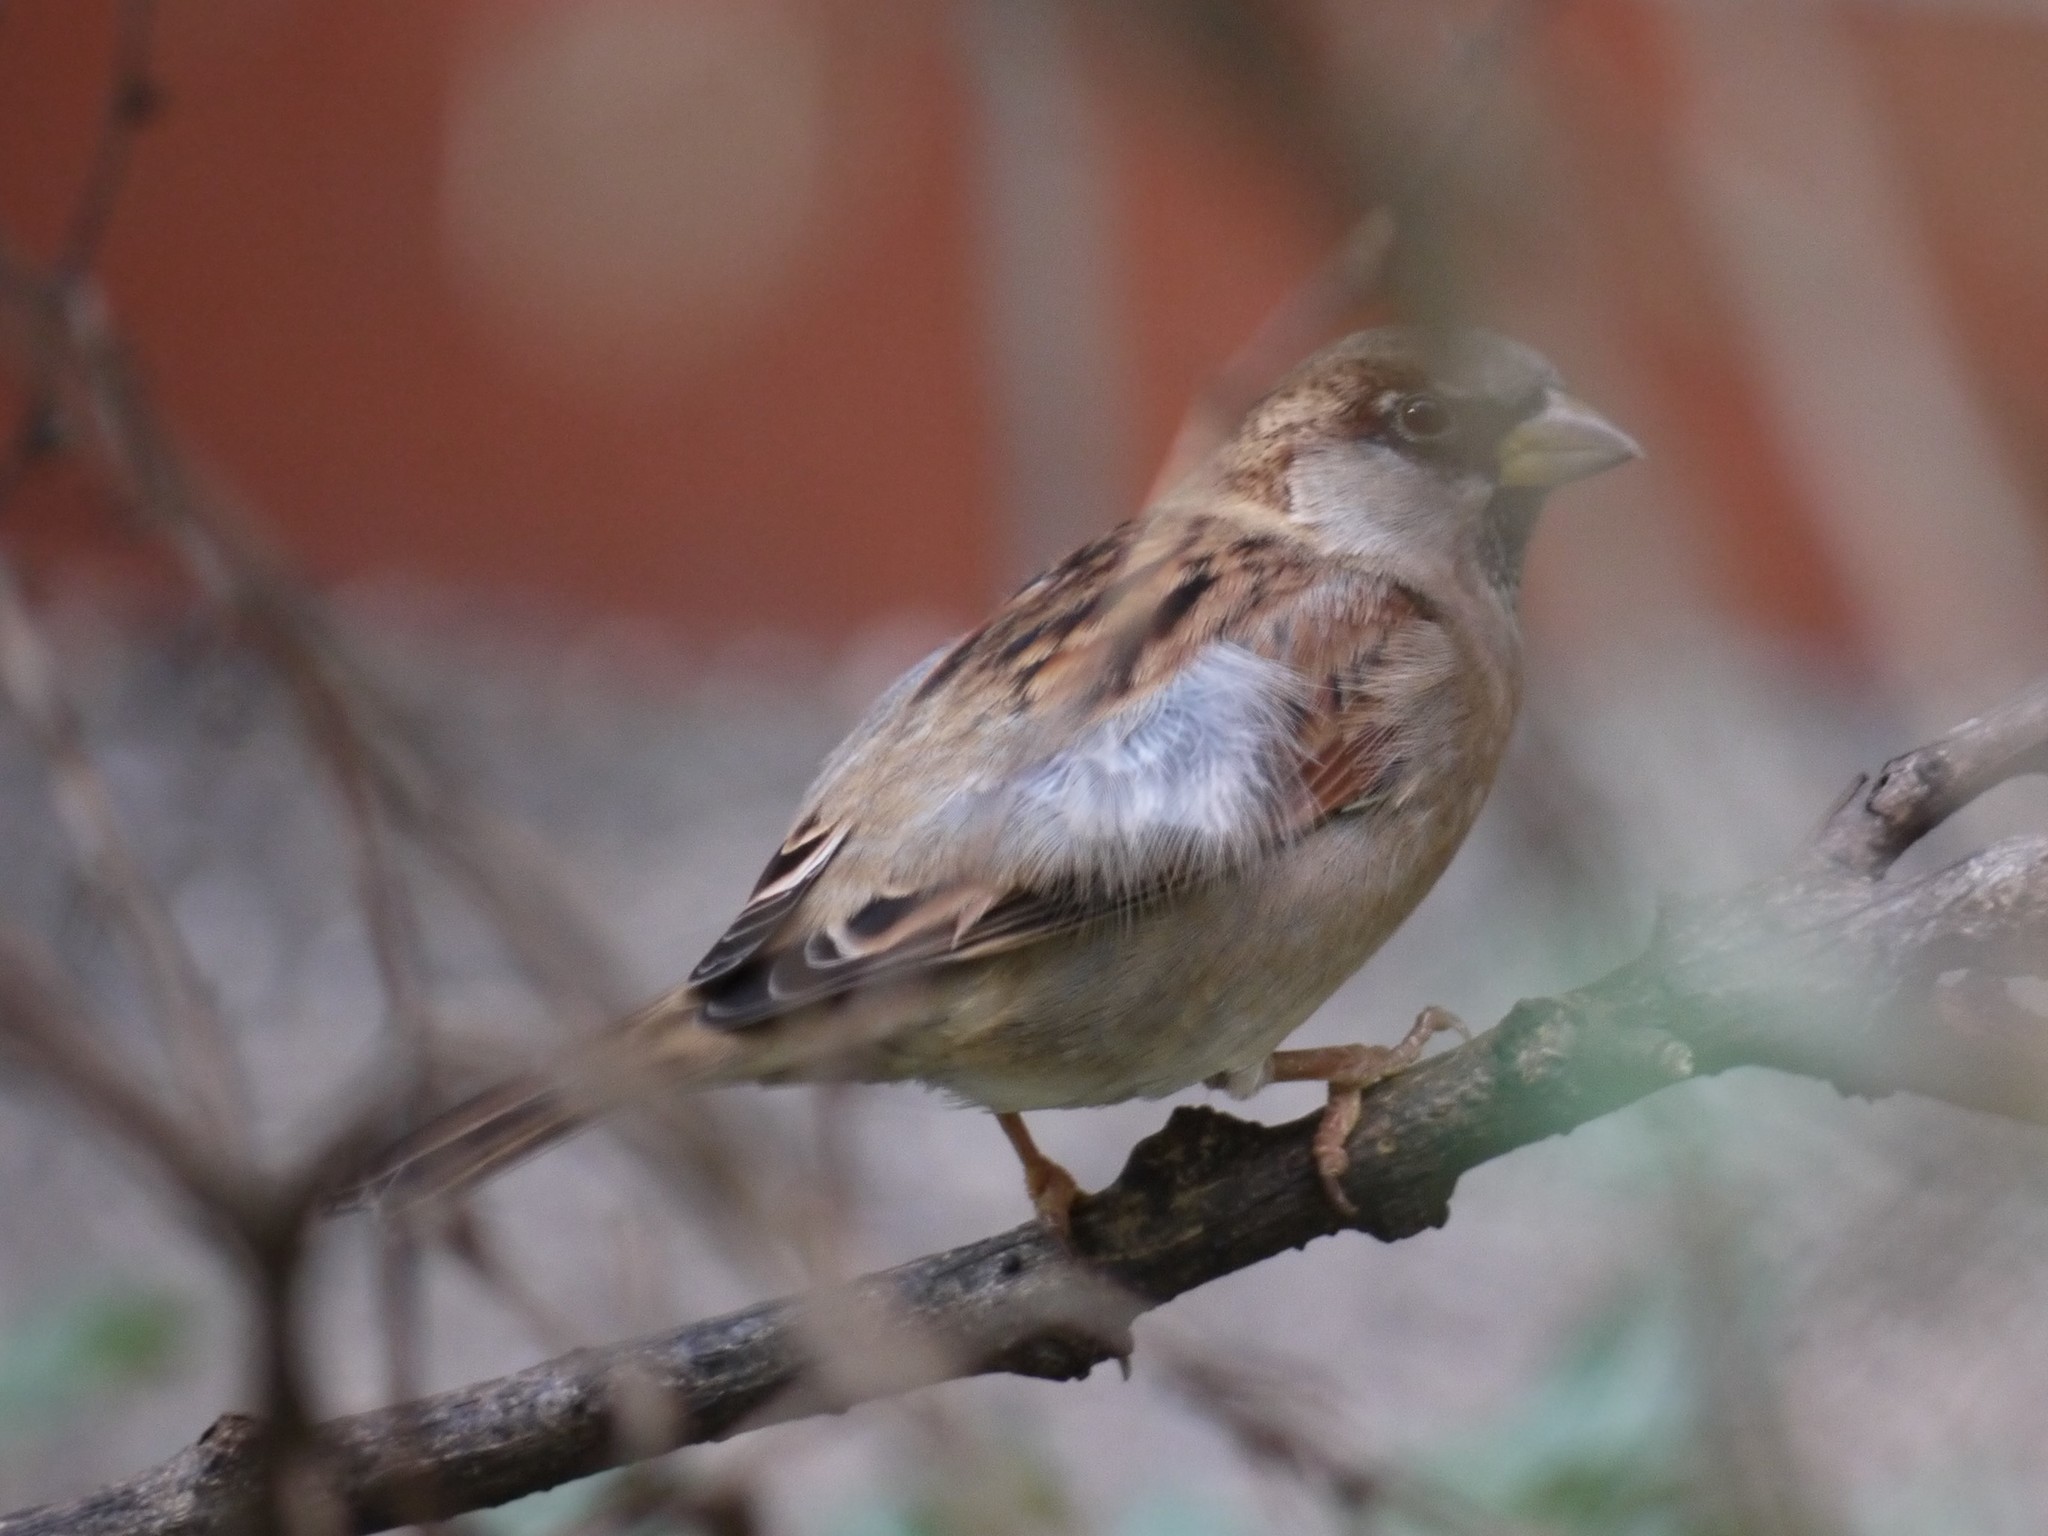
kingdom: Animalia
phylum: Chordata
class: Aves
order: Passeriformes
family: Passeridae
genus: Passer
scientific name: Passer domesticus
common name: House sparrow
